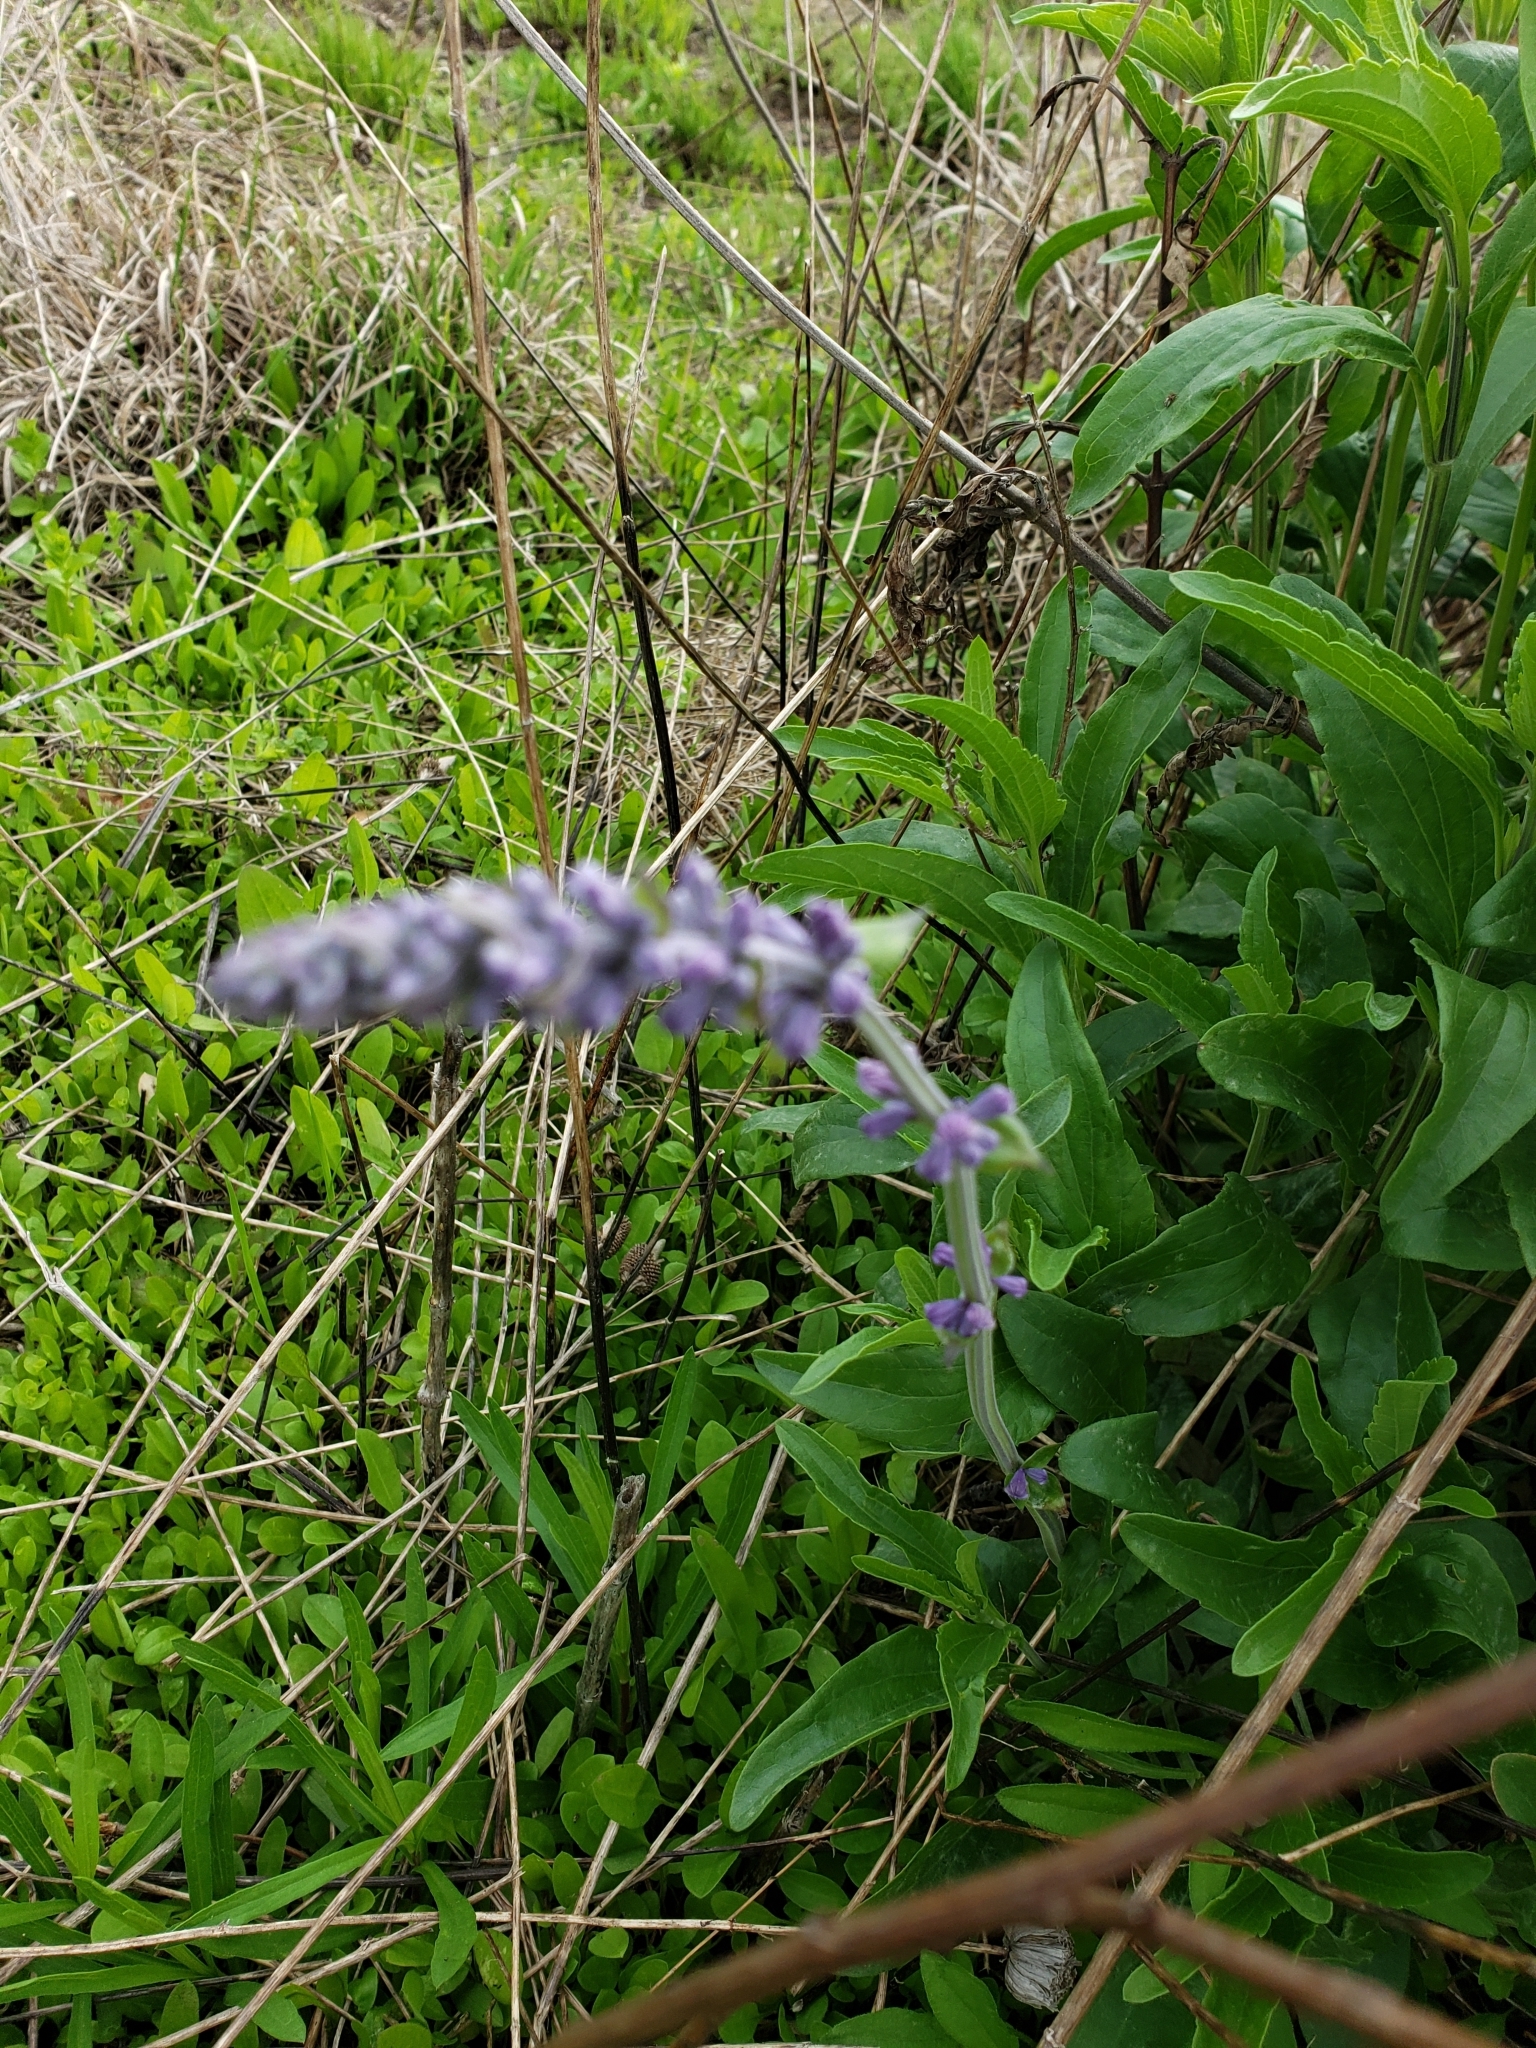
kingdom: Plantae
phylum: Tracheophyta
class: Magnoliopsida
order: Lamiales
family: Lamiaceae
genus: Salvia
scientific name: Salvia farinacea
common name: Mealy sage
